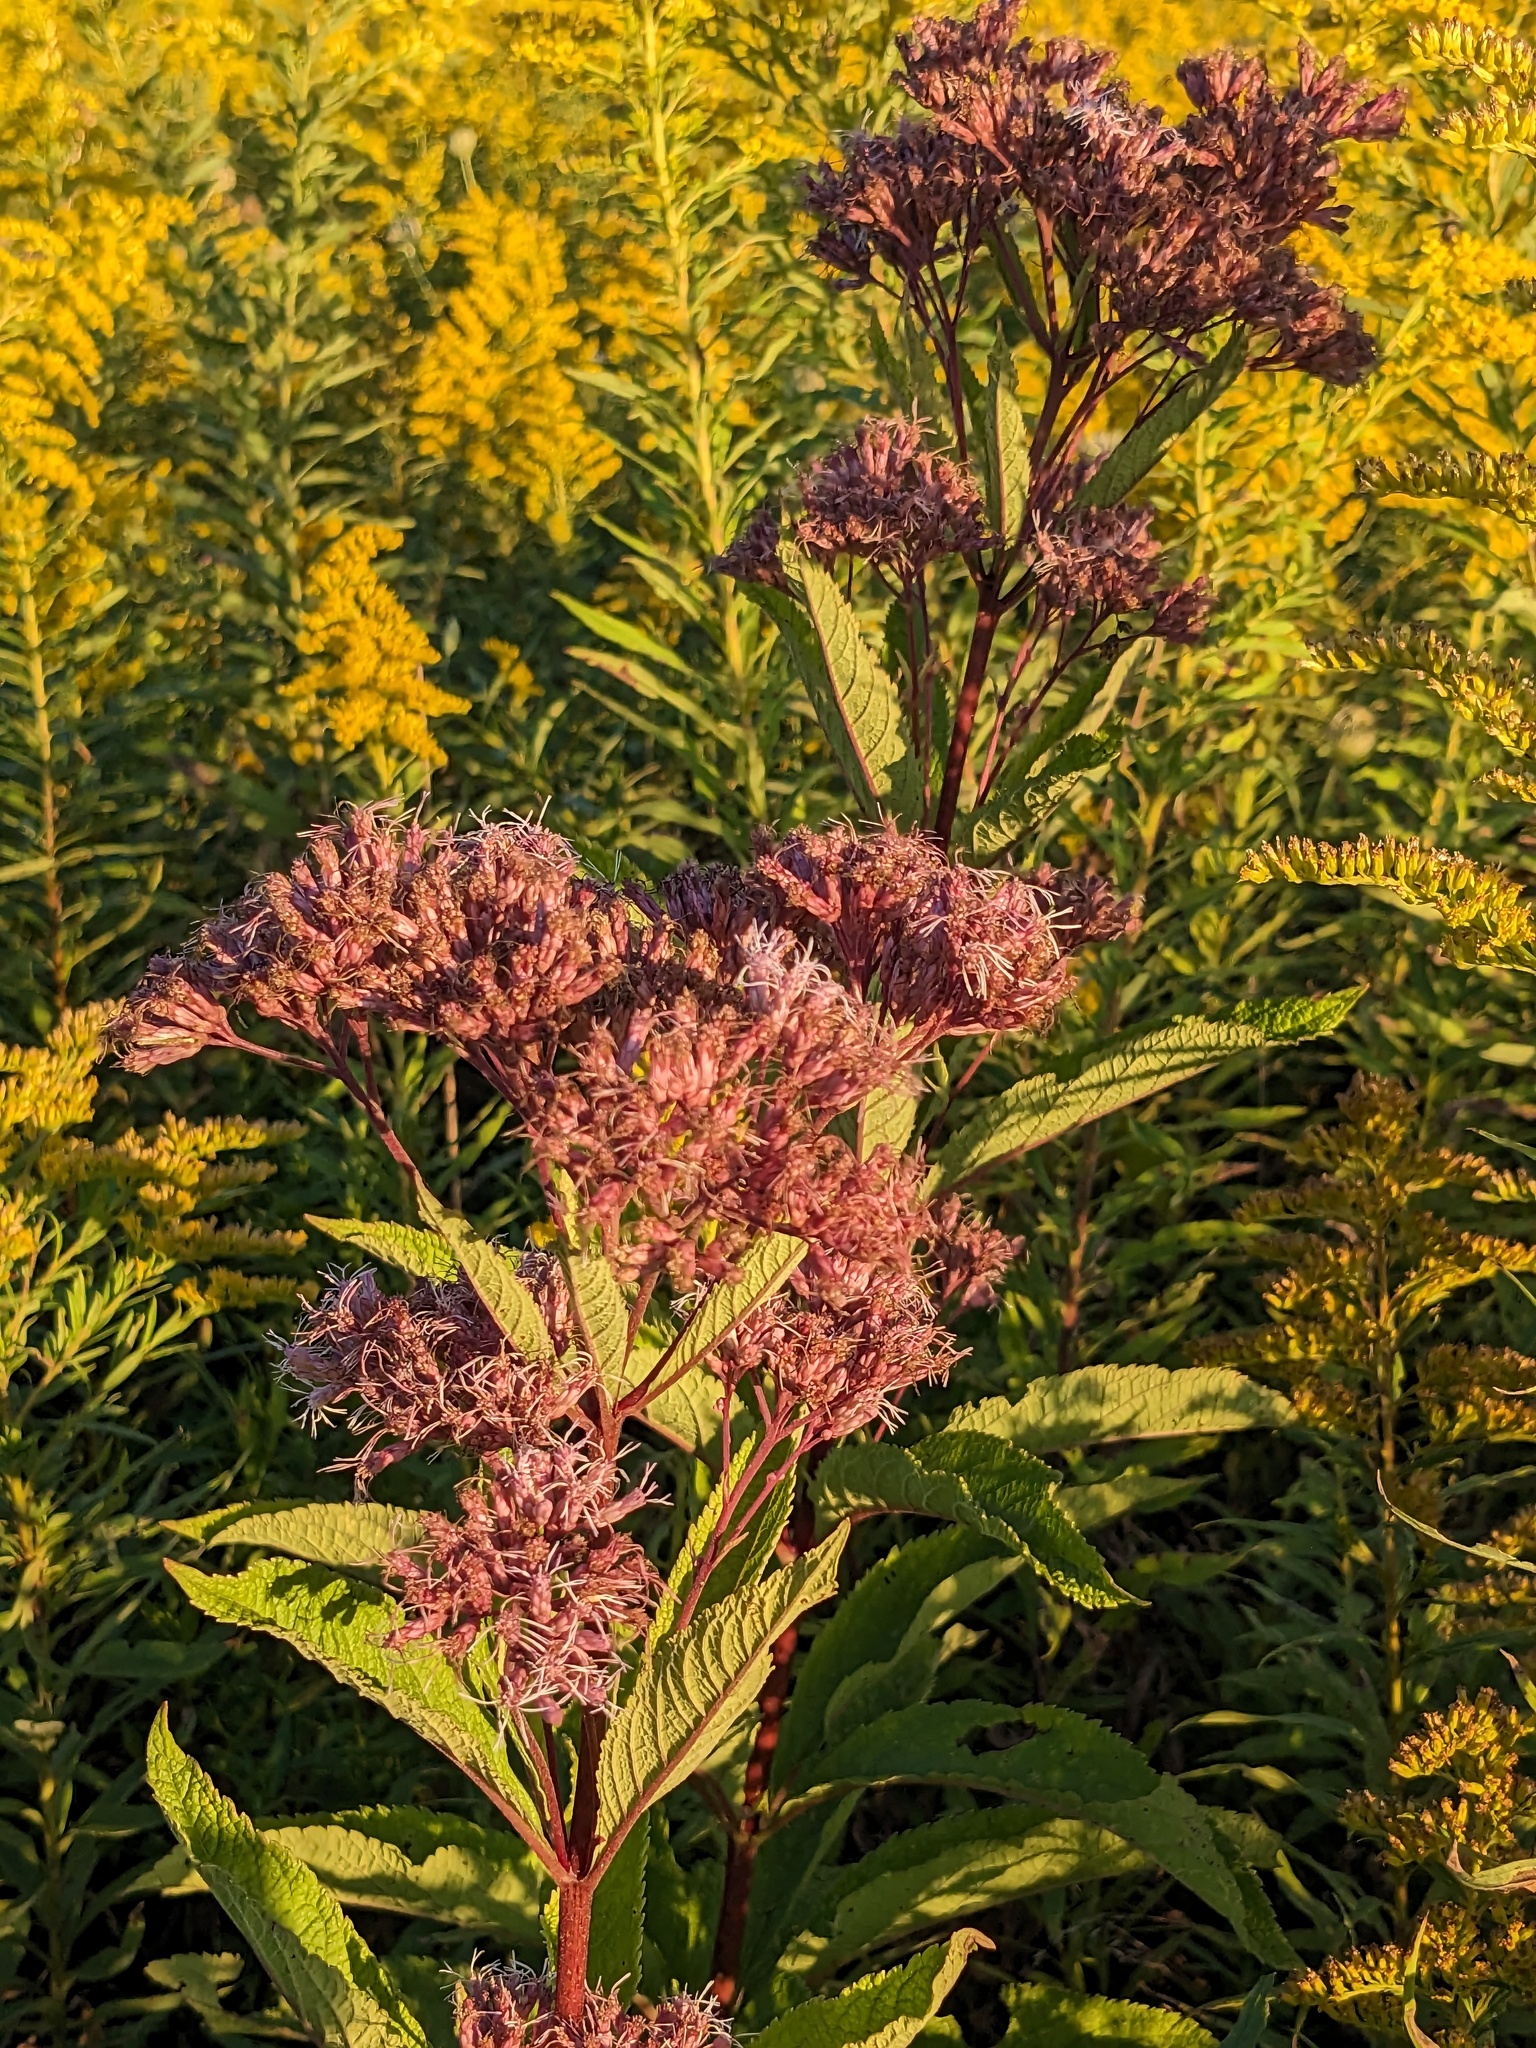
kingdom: Plantae
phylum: Tracheophyta
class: Magnoliopsida
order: Asterales
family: Asteraceae
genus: Eutrochium
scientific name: Eutrochium maculatum
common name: Spotted joe pye weed
